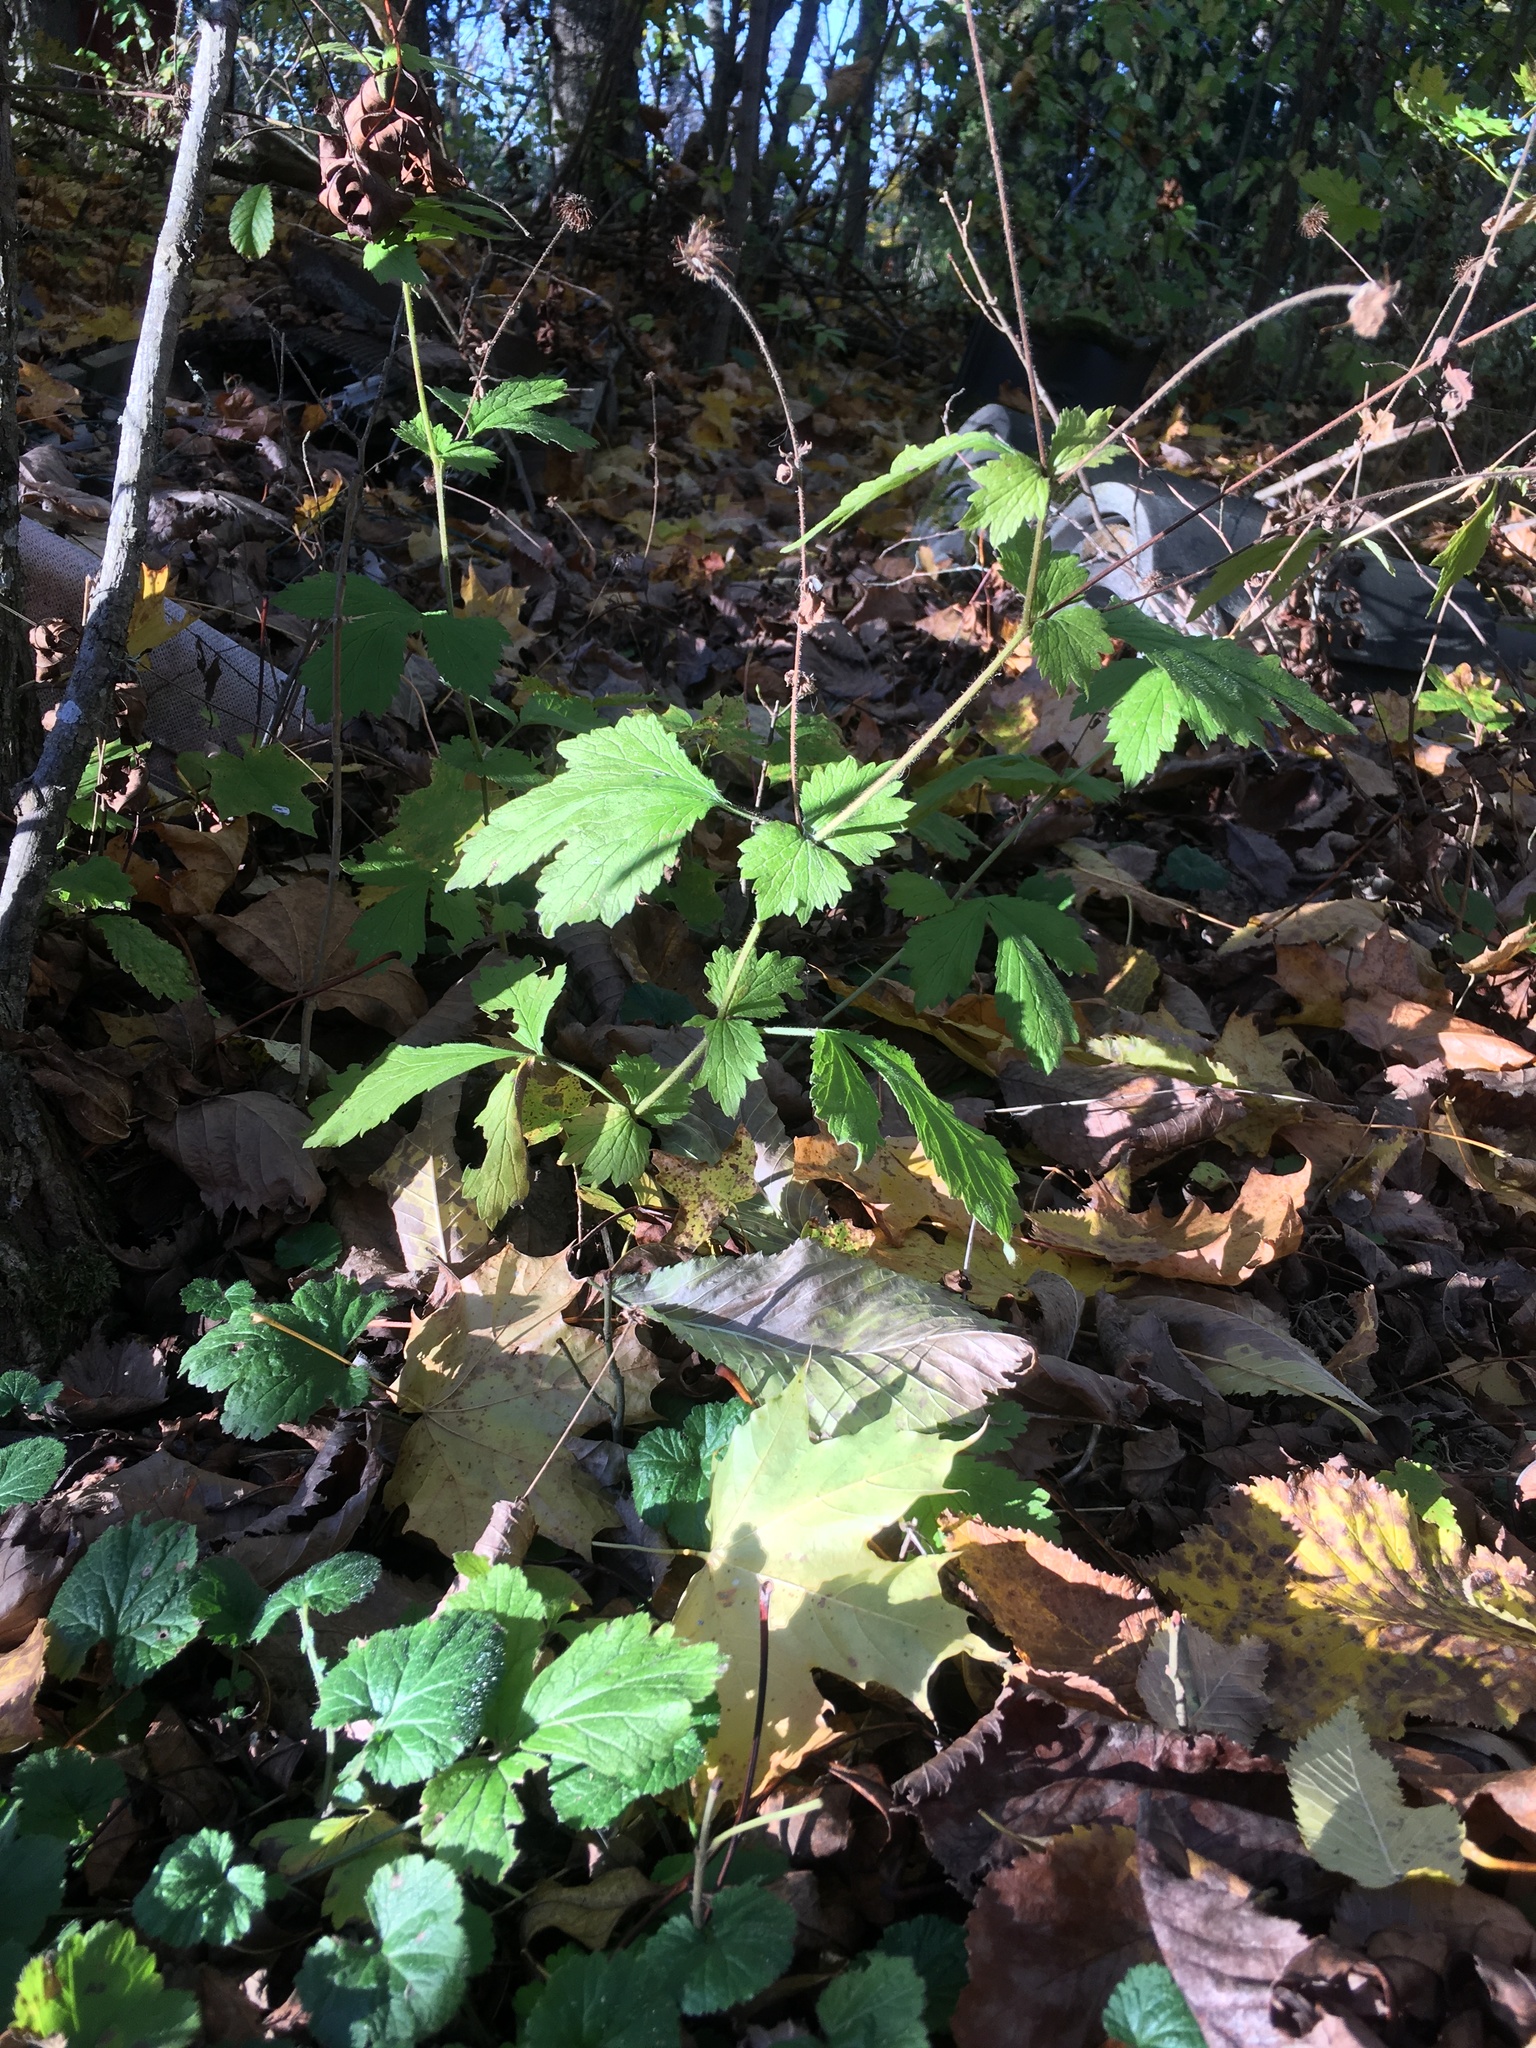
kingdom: Plantae
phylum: Tracheophyta
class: Magnoliopsida
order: Rosales
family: Rosaceae
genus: Geum
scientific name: Geum urbanum
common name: Wood avens
